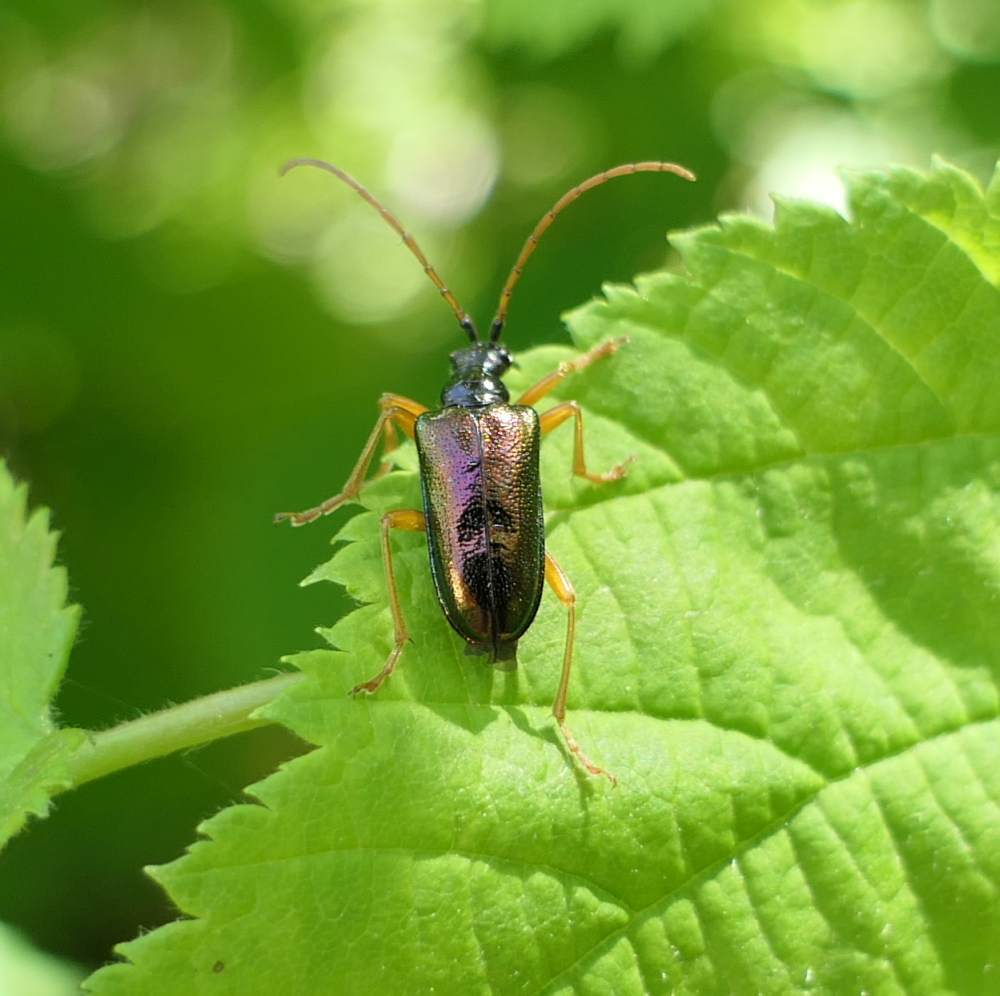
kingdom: Animalia
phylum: Arthropoda
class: Insecta
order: Coleoptera
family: Cerambycidae
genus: Gaurotes
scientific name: Gaurotes cyanipennis
